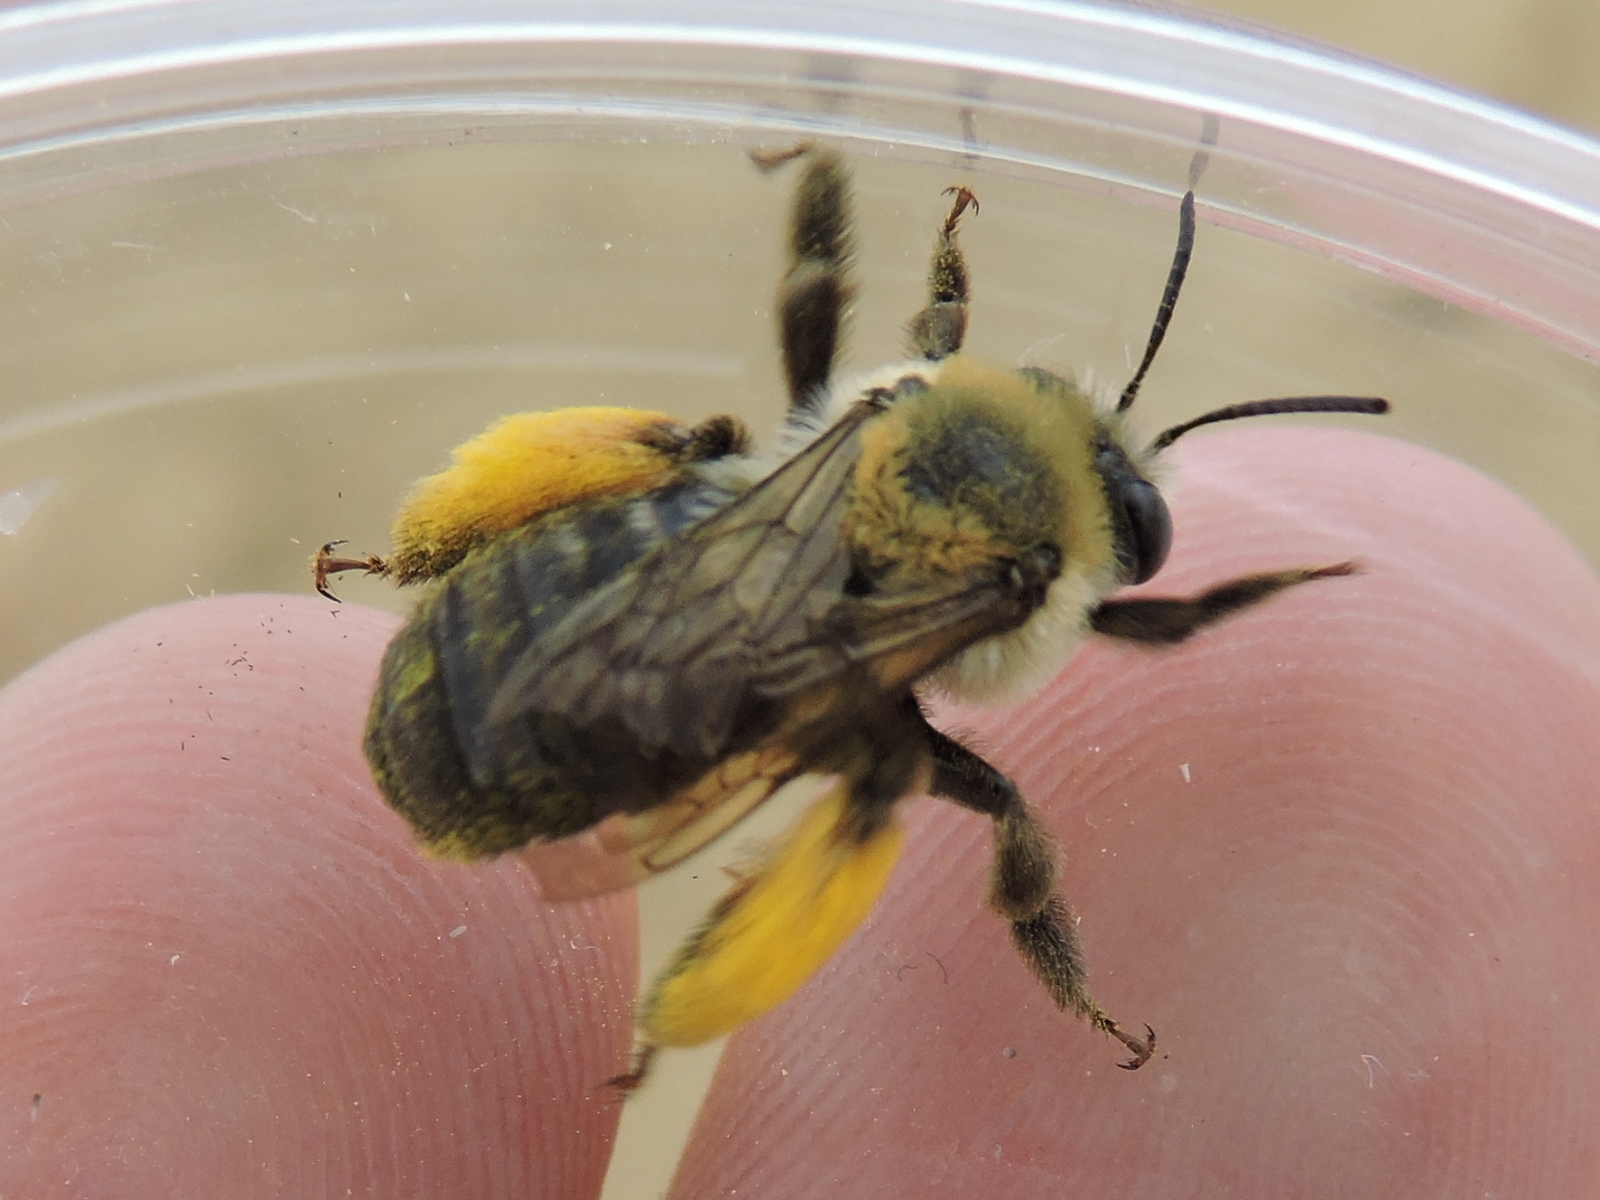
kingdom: Animalia
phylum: Arthropoda
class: Insecta
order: Hymenoptera
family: Apidae
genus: Melissodes
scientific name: Melissodes dentiventris
